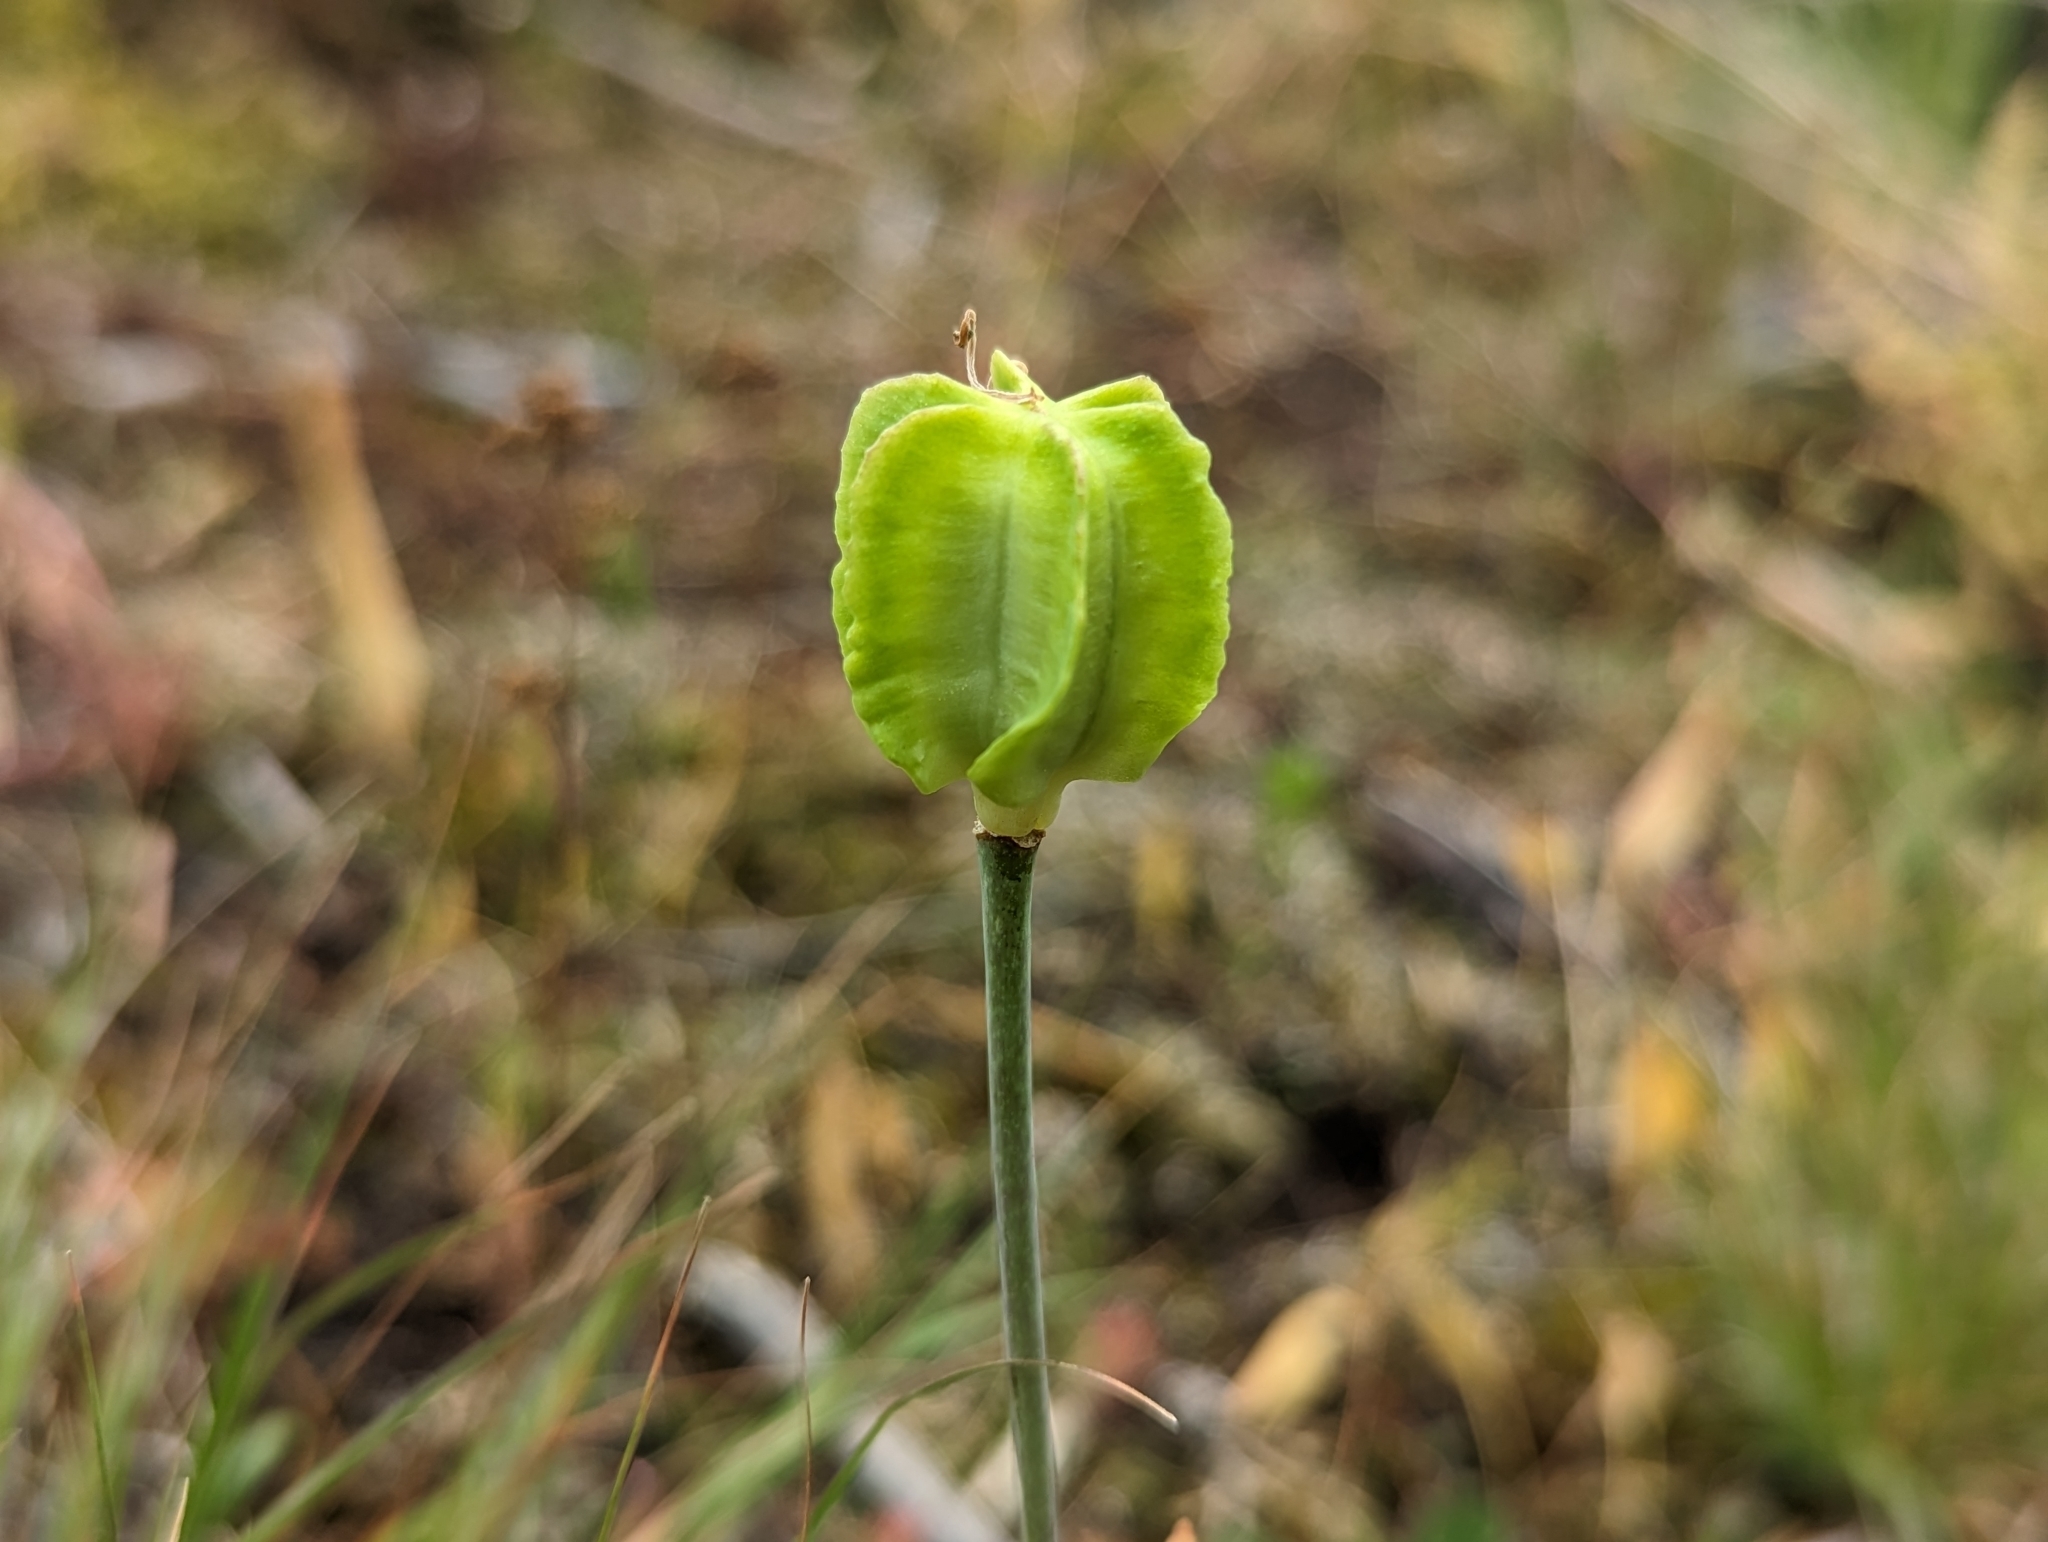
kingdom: Plantae
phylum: Tracheophyta
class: Liliopsida
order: Liliales
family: Liliaceae
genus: Fritillaria
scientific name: Fritillaria affinis
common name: Ojai fritillary
